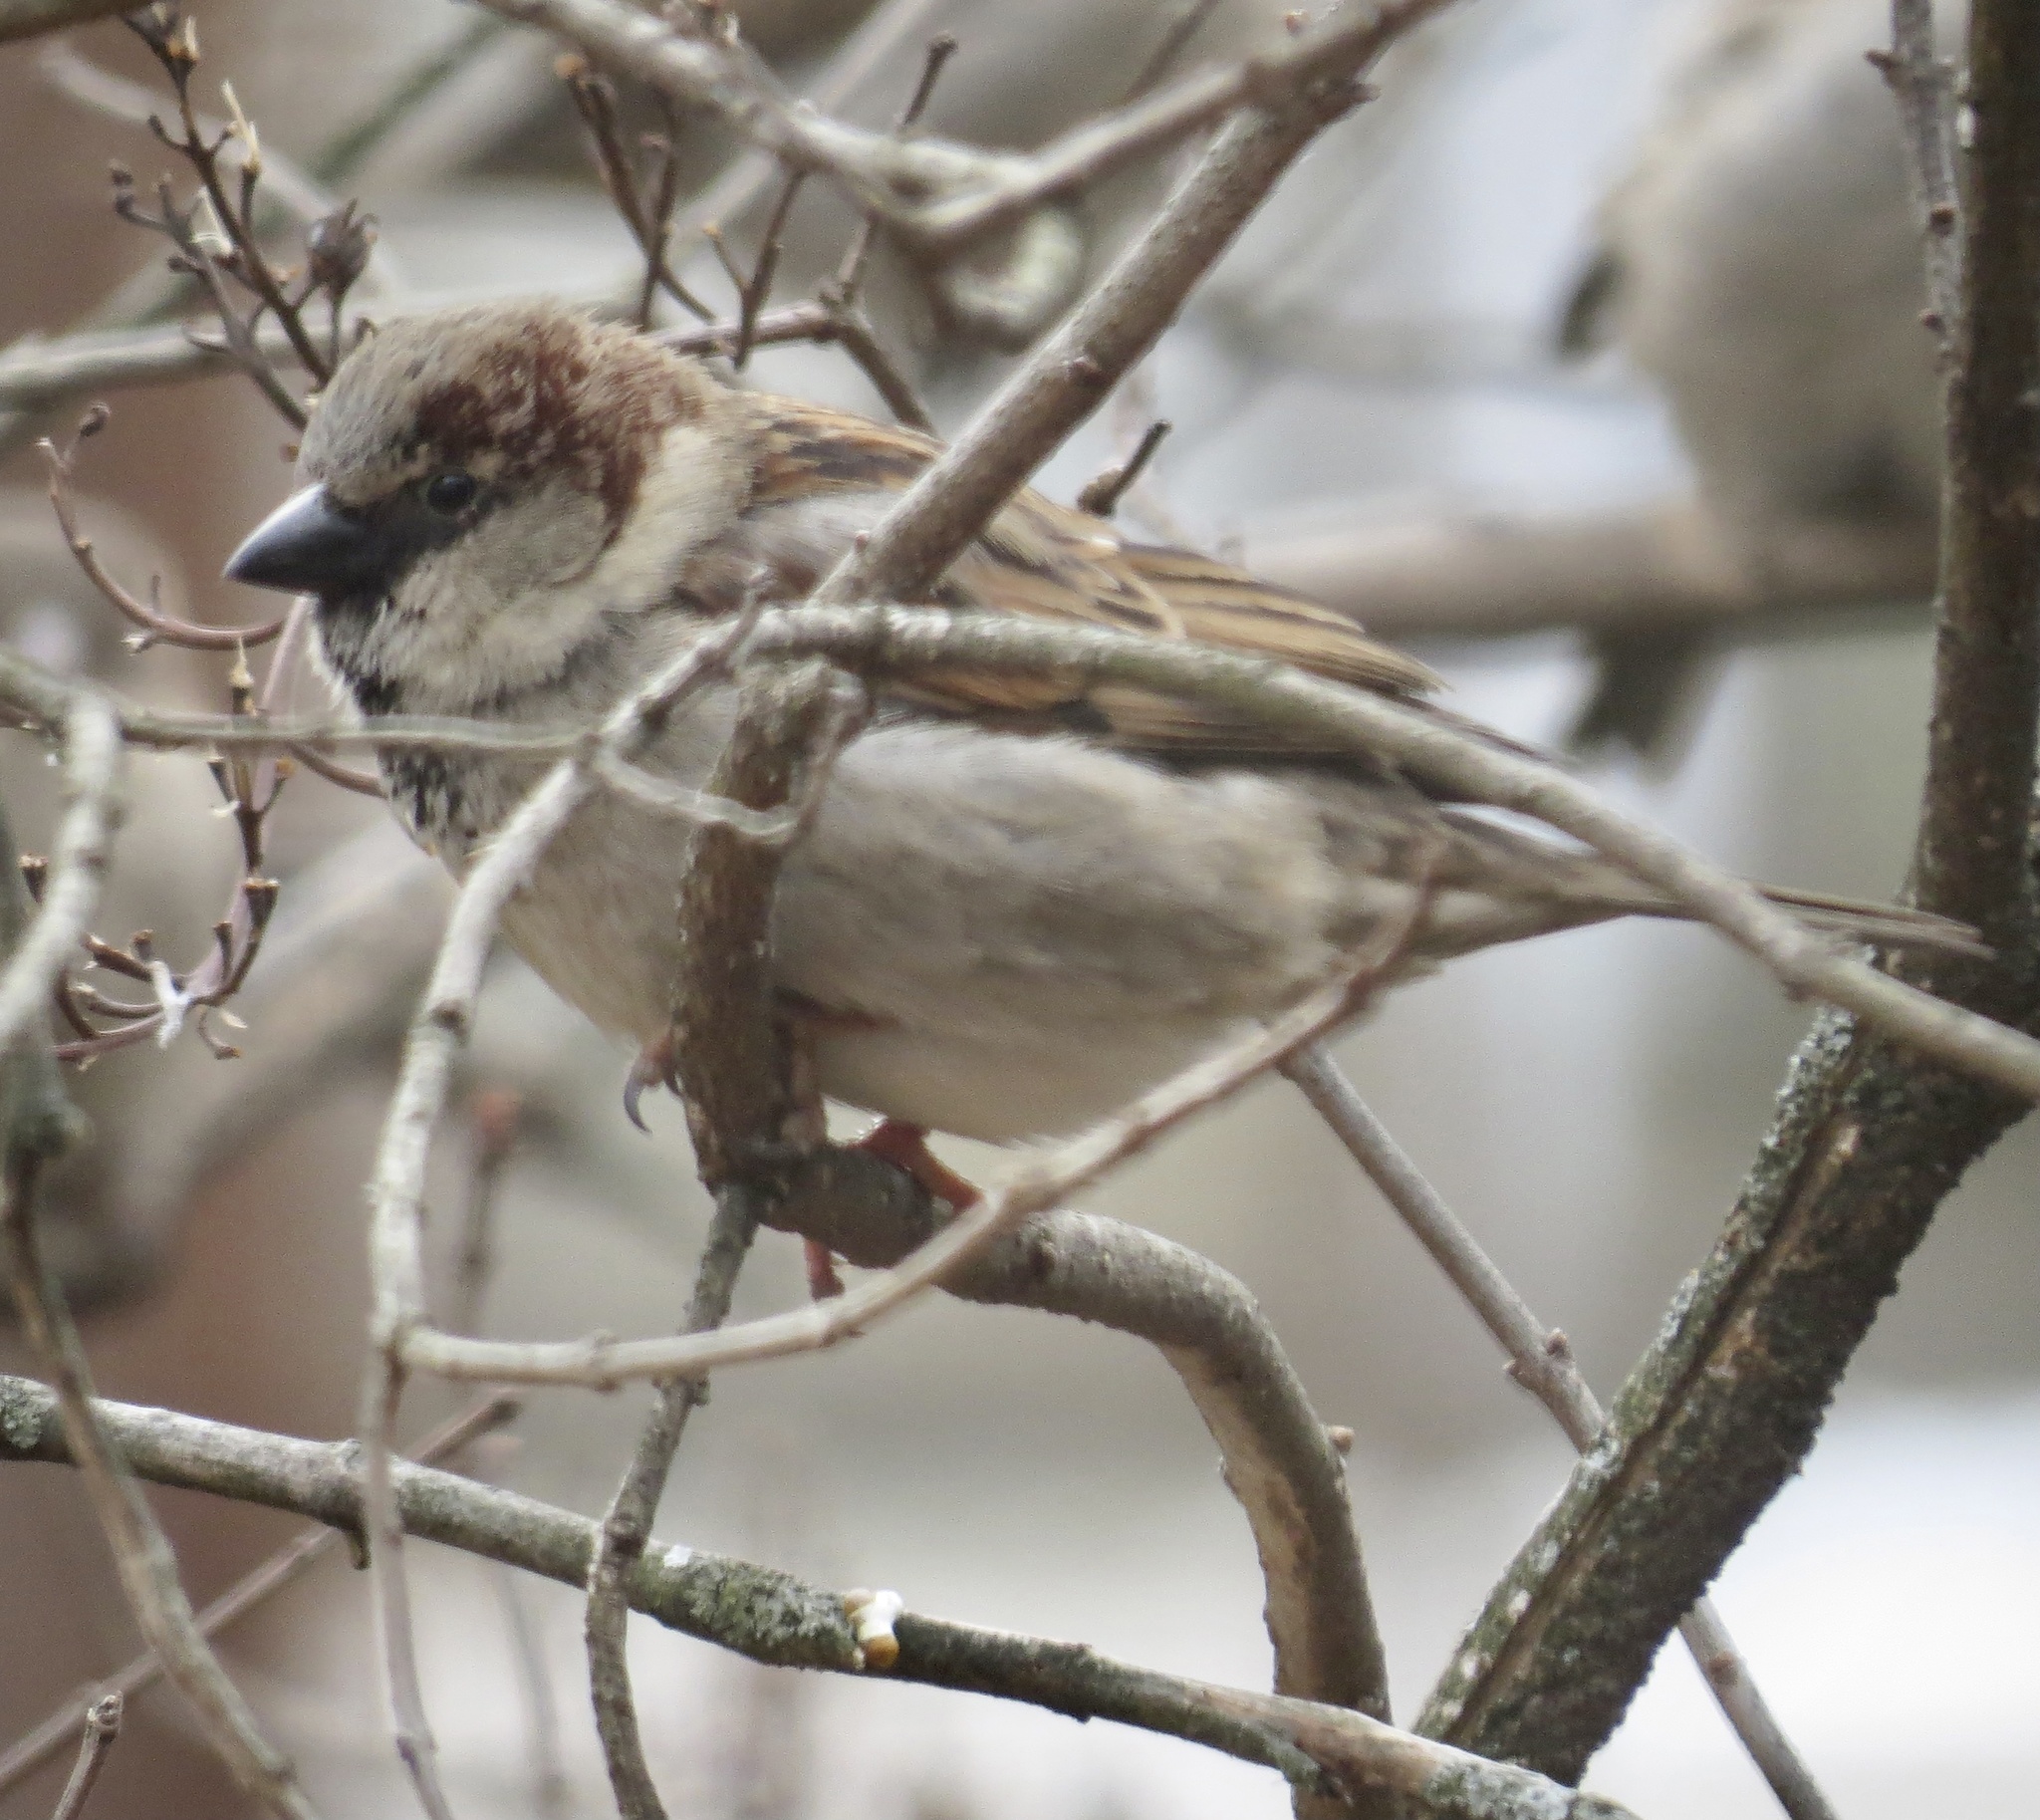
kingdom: Animalia
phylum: Chordata
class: Aves
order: Passeriformes
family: Passeridae
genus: Passer
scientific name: Passer domesticus
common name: House sparrow
